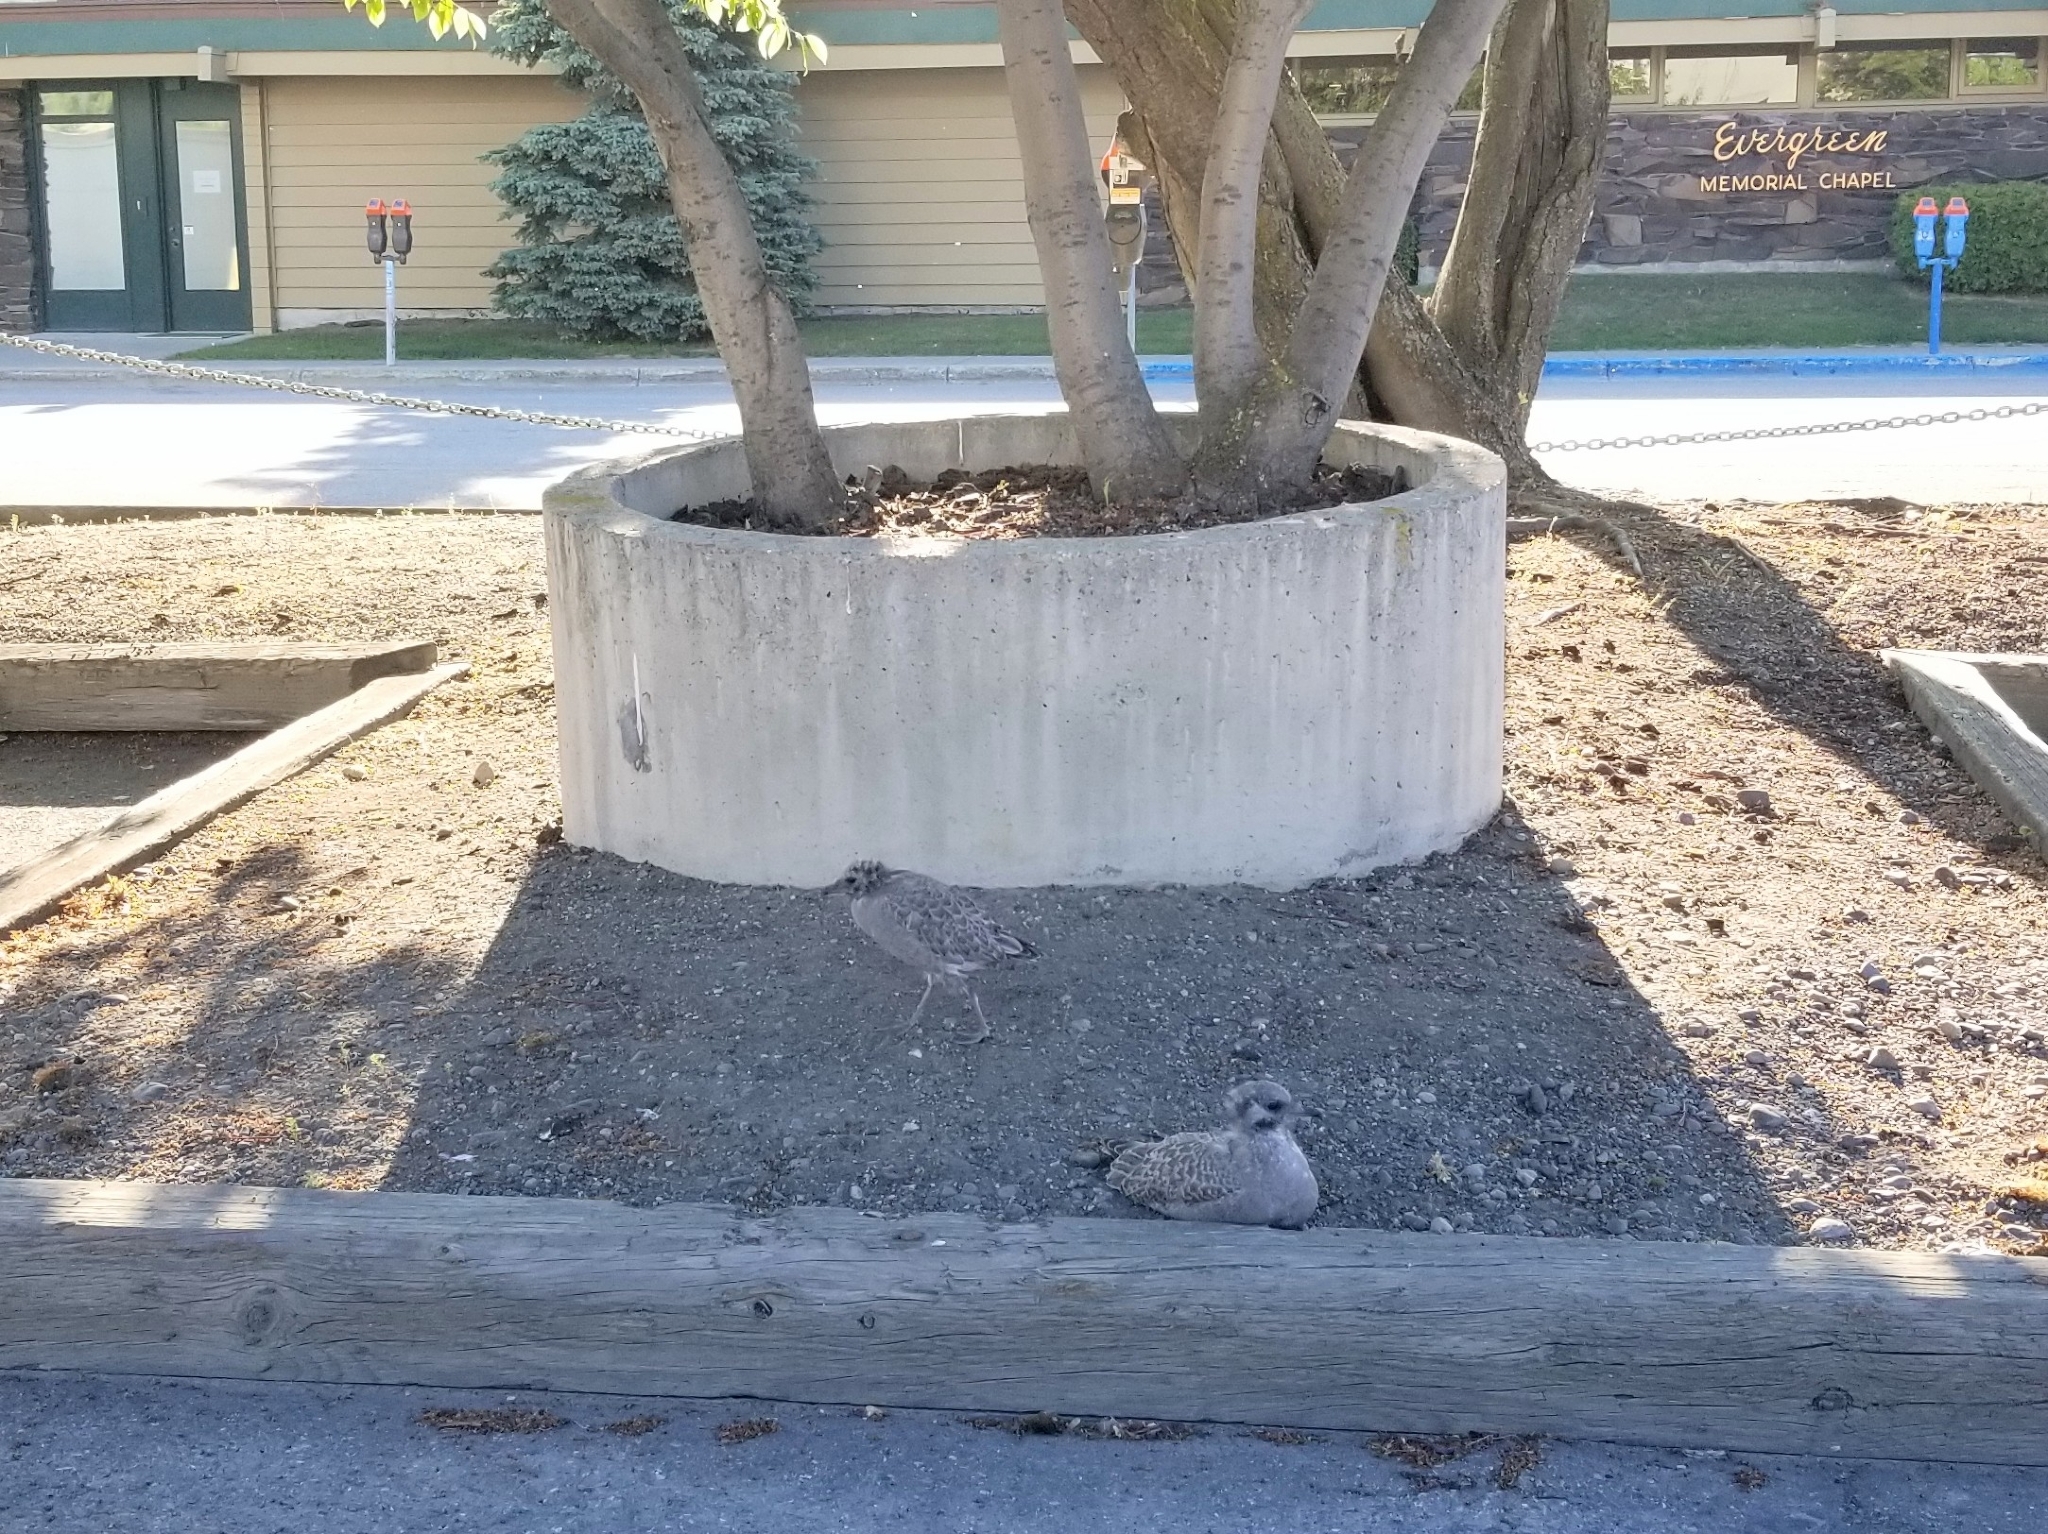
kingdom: Animalia
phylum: Chordata
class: Aves
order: Charadriiformes
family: Laridae
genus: Larus
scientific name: Larus brachyrhynchus
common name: Short-billed gull
